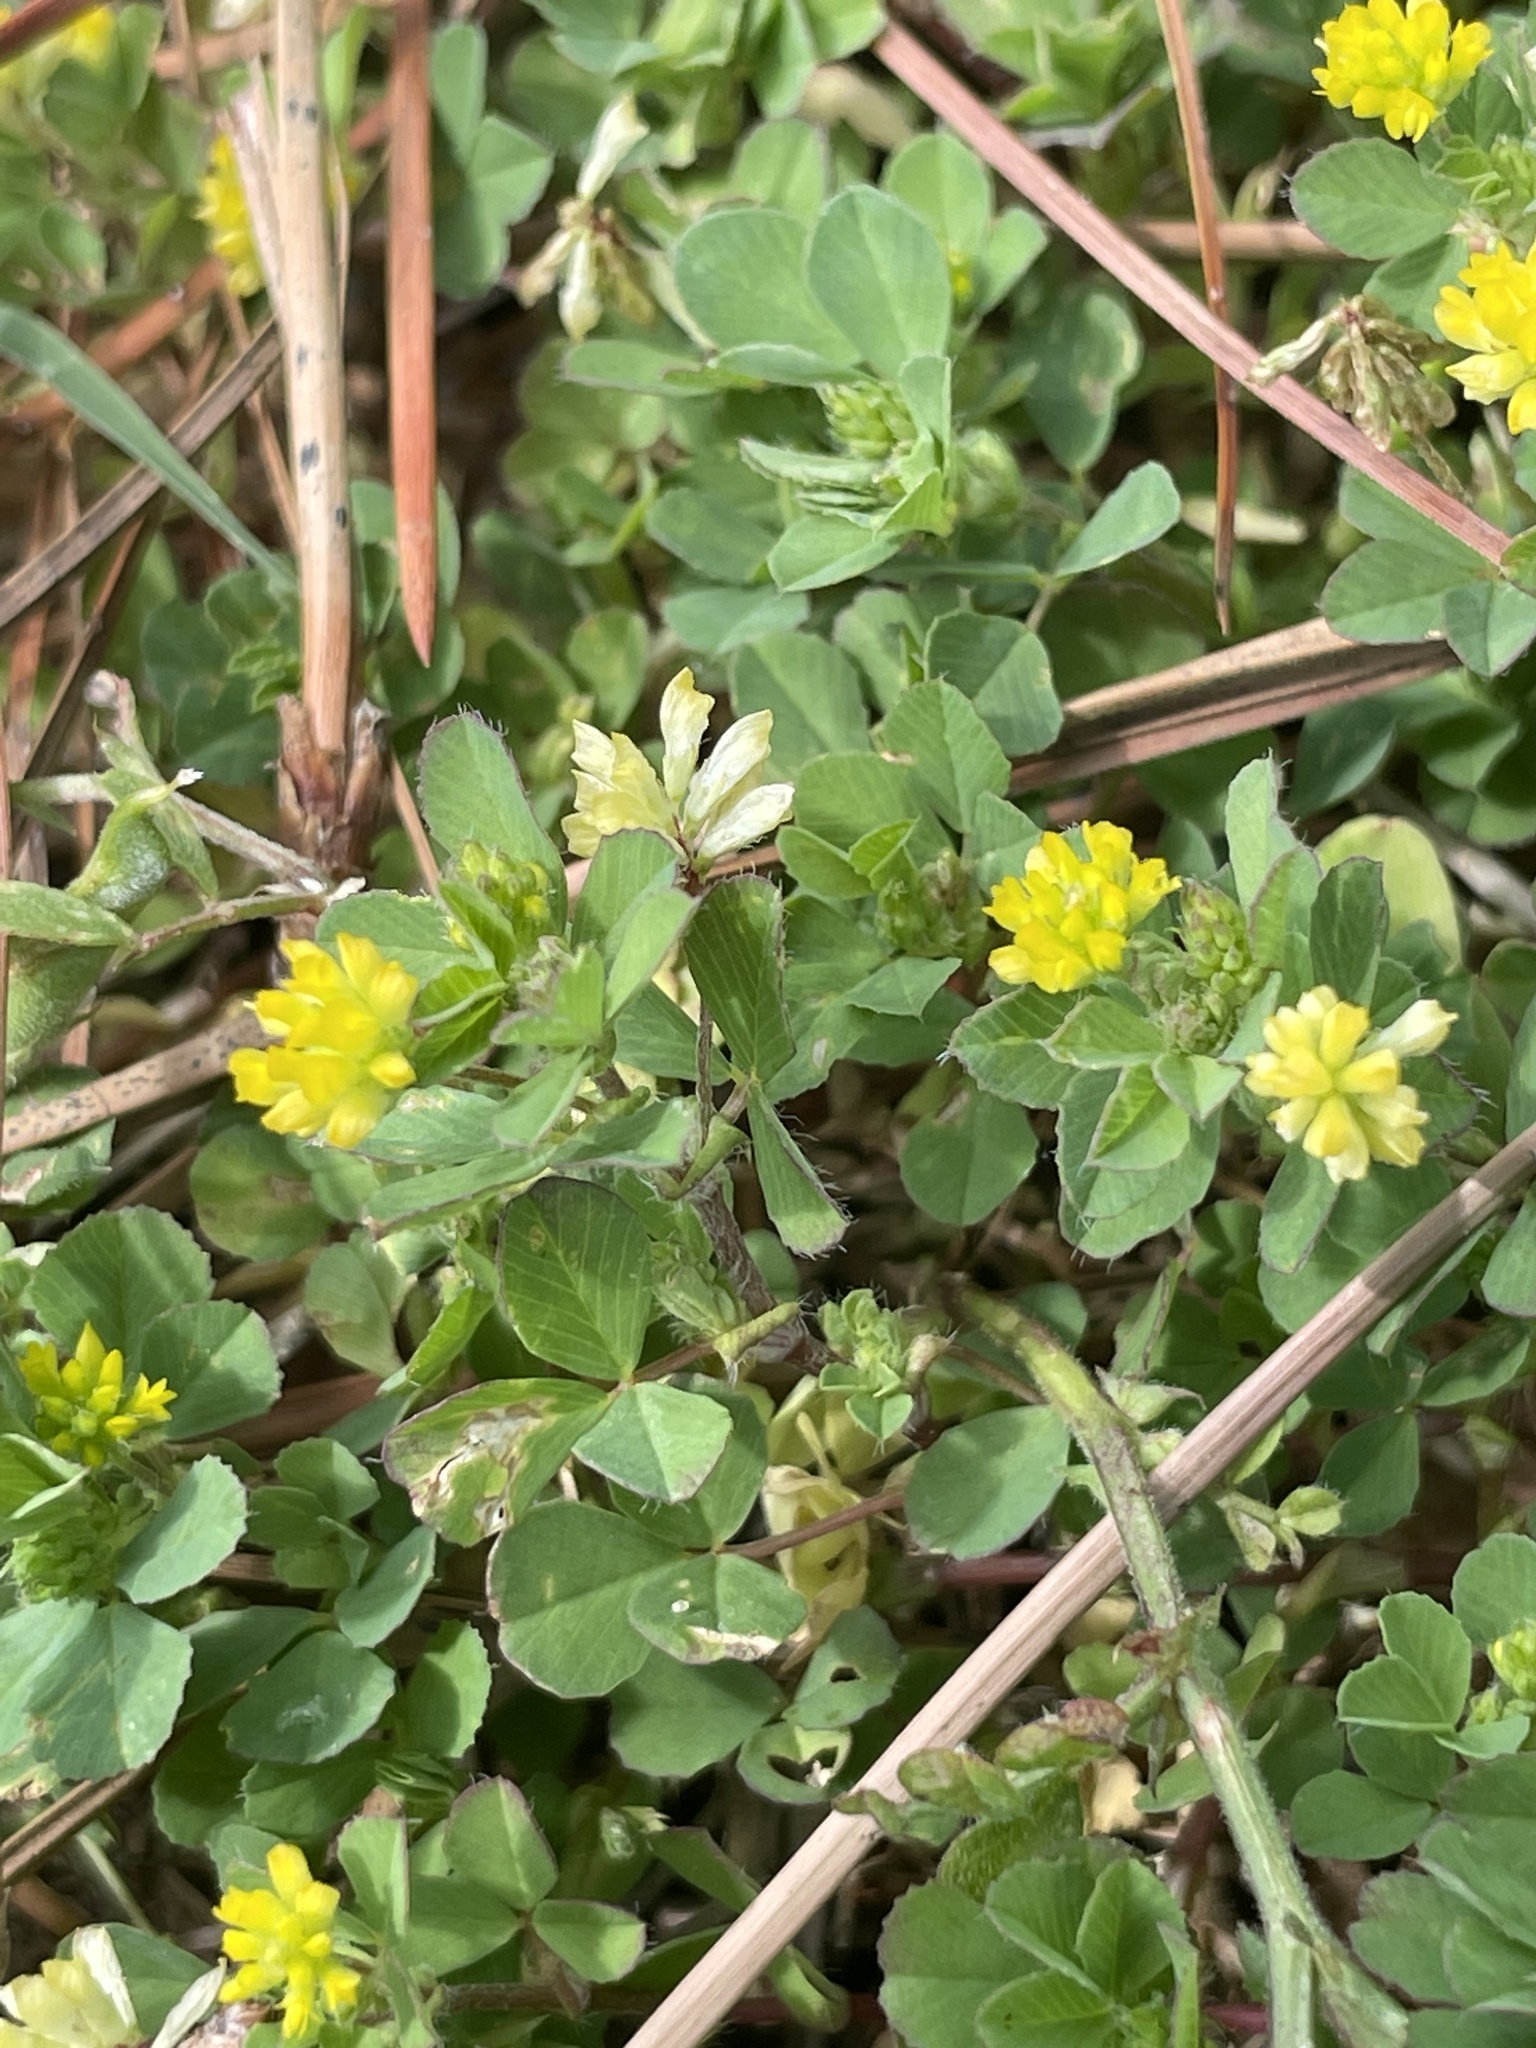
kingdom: Plantae
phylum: Tracheophyta
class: Magnoliopsida
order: Fabales
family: Fabaceae
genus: Trifolium
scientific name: Trifolium dubium
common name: Suckling clover
